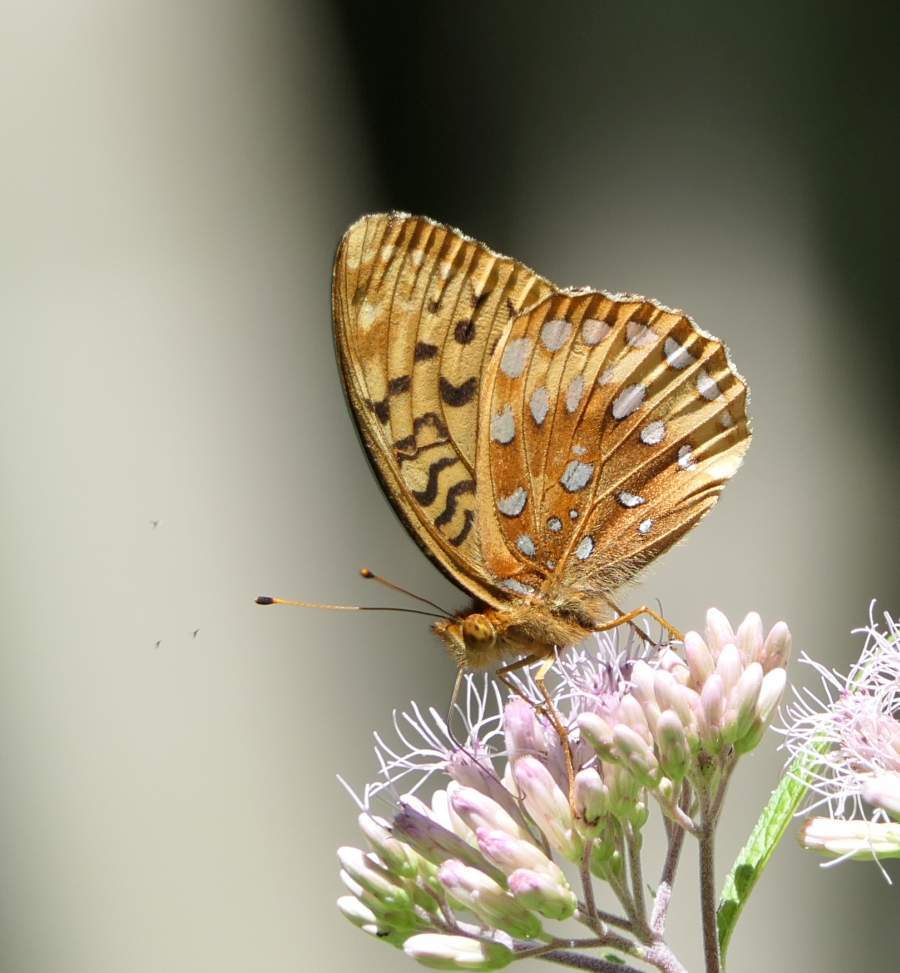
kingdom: Animalia
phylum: Arthropoda
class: Insecta
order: Lepidoptera
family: Nymphalidae
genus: Speyeria
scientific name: Speyeria cybele
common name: Great spangled fritillary
